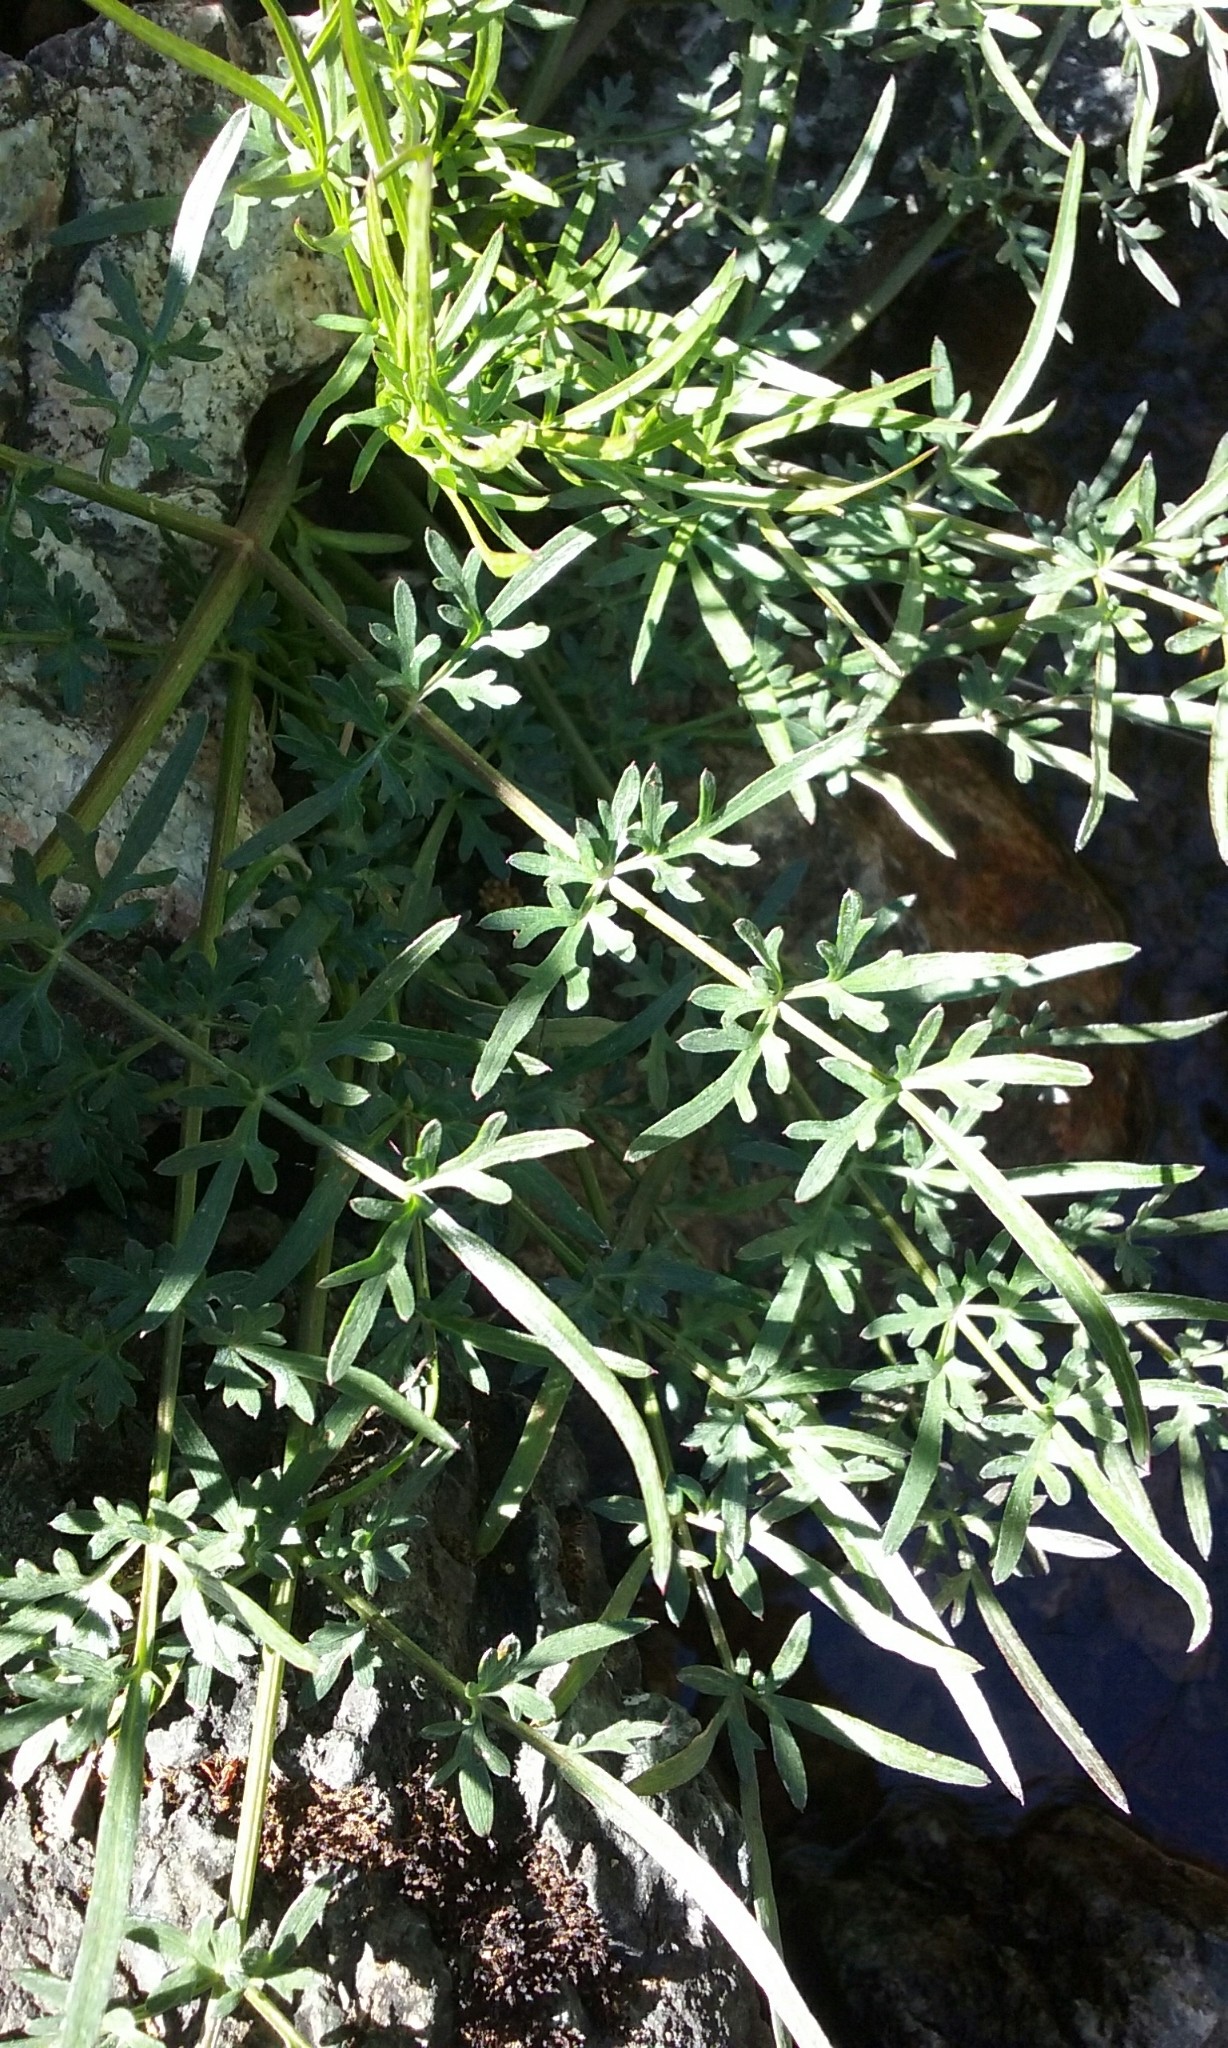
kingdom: Plantae
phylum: Tracheophyta
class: Magnoliopsida
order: Apiales
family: Apiaceae
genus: Perideridia
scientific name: Perideridia californica
